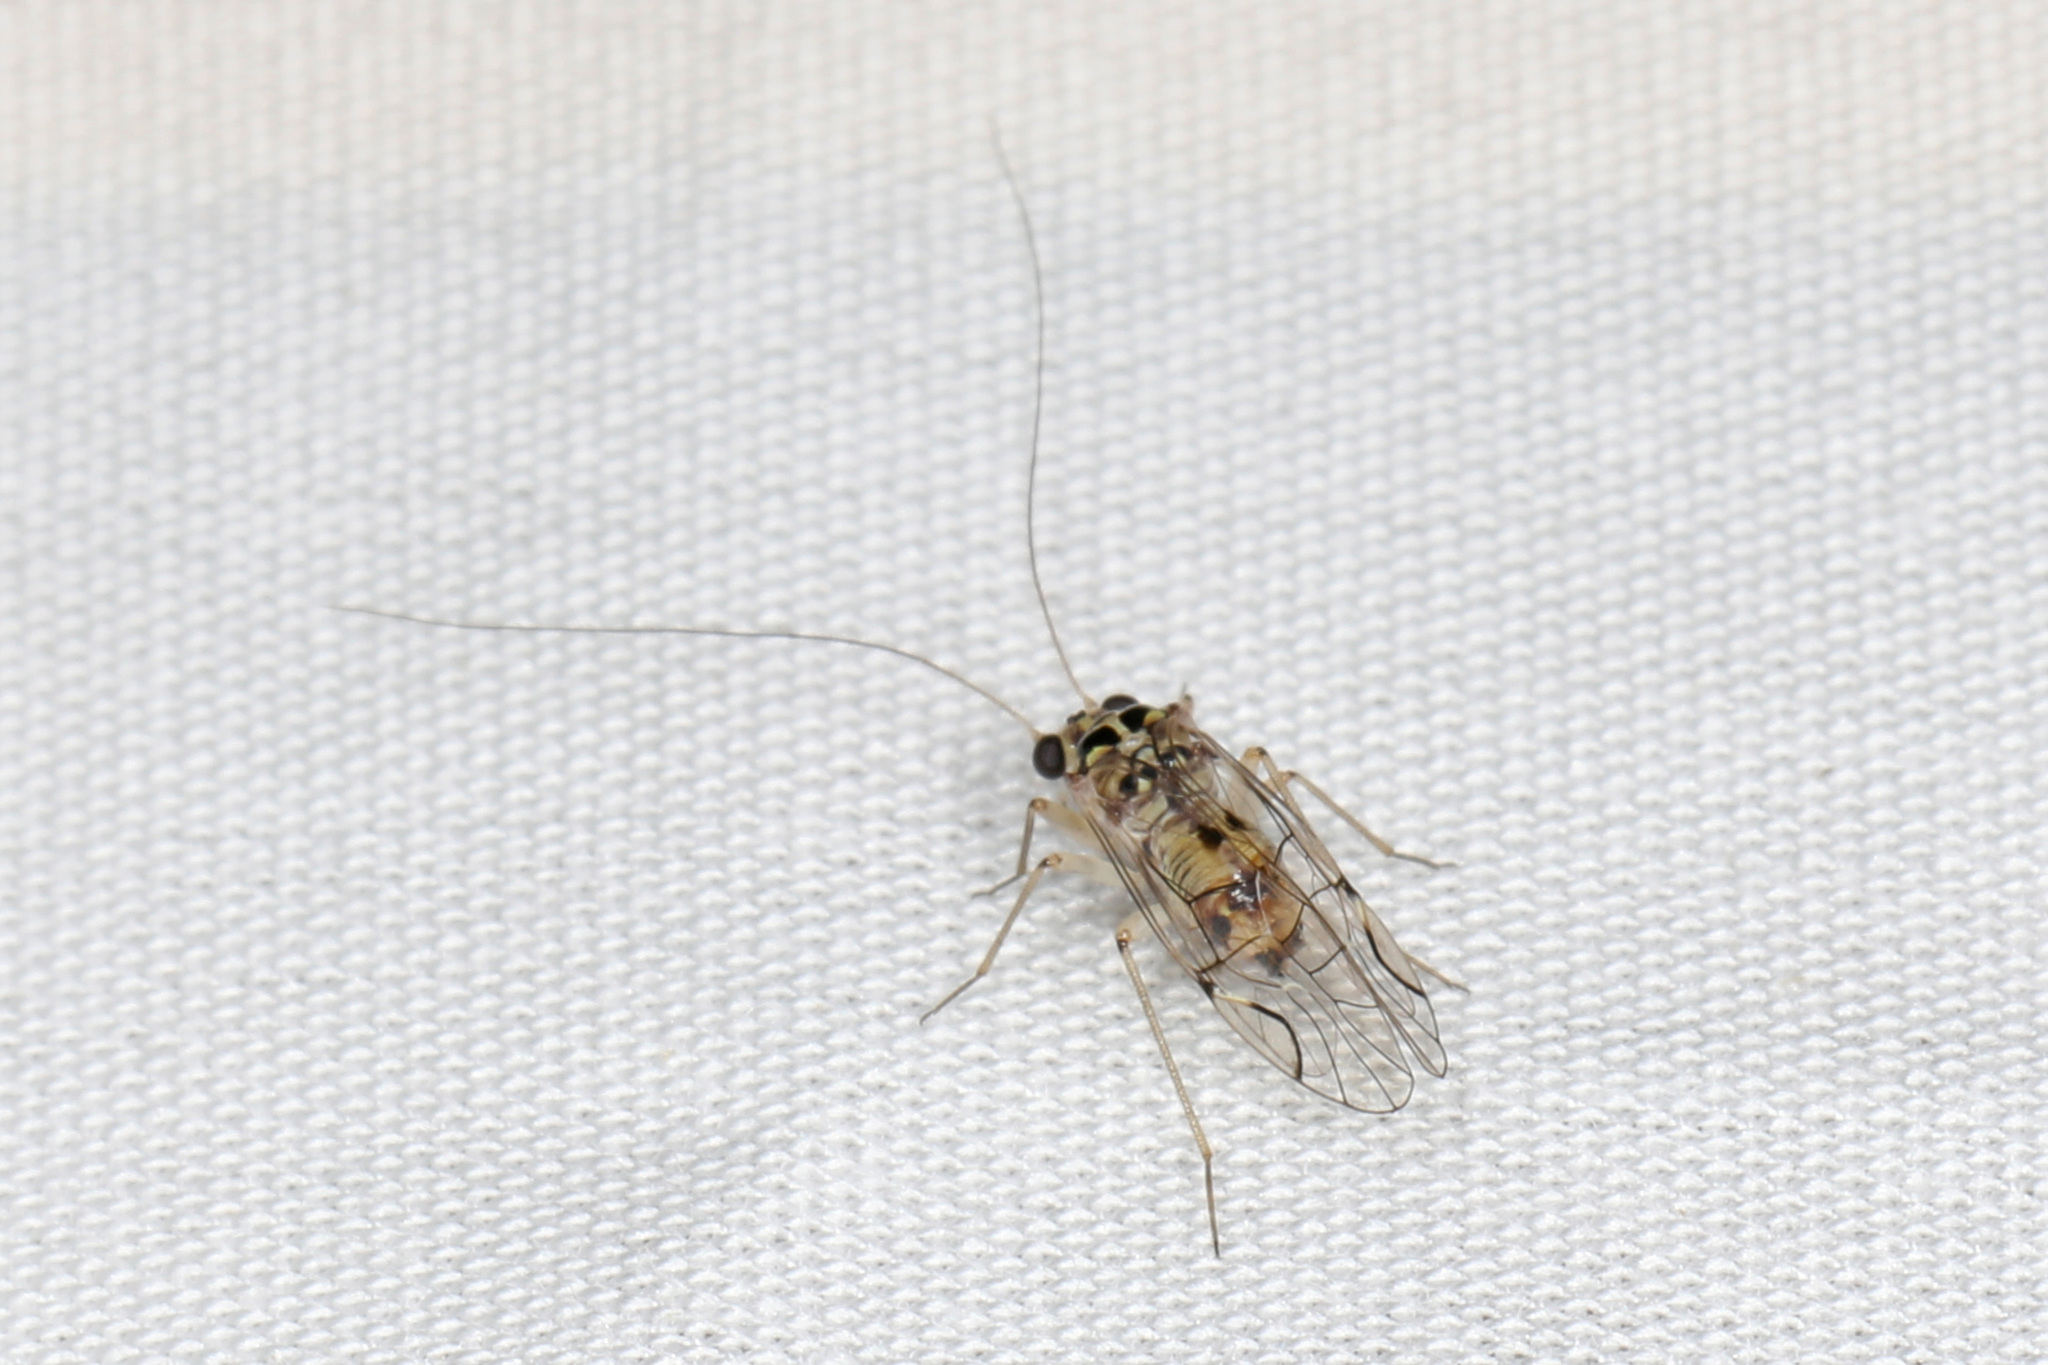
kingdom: Animalia
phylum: Arthropoda
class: Insecta
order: Psocodea
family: Dasydemellidae
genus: Teliapsocus
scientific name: Teliapsocus conterminus
